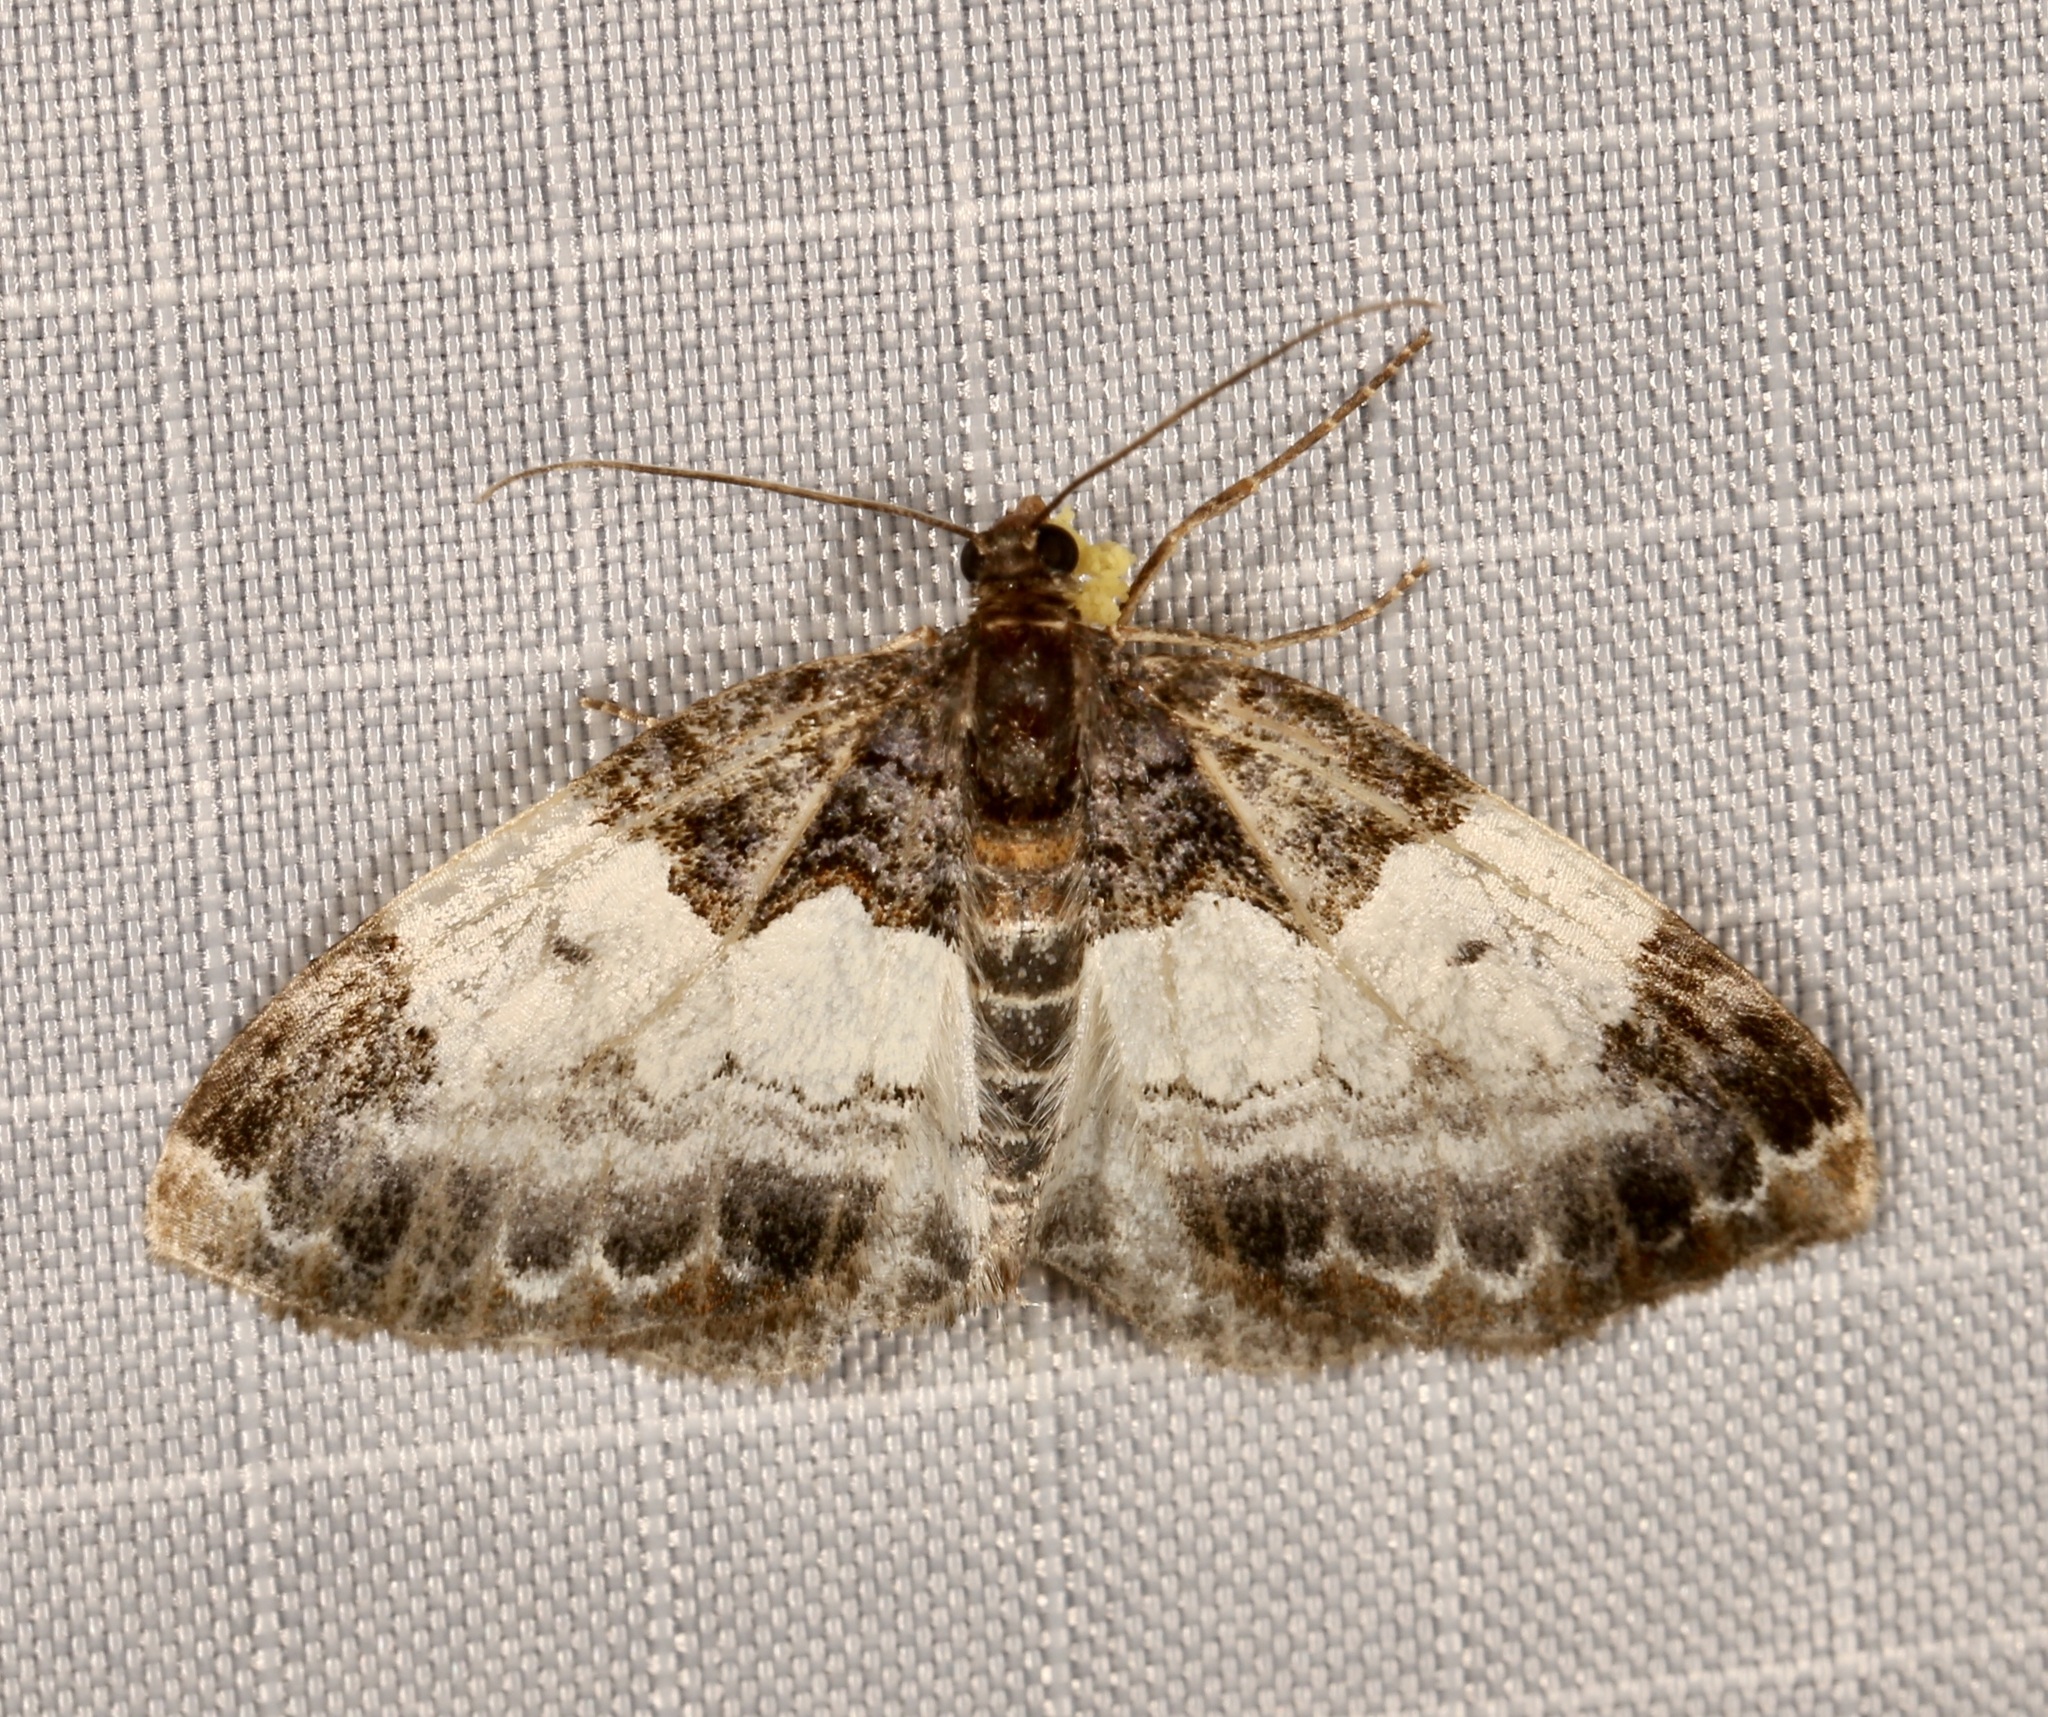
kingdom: Animalia
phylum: Arthropoda
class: Insecta
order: Lepidoptera
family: Geometridae
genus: Mesoleuca
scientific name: Mesoleuca ruficillata
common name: White-ribboned carpet moth
